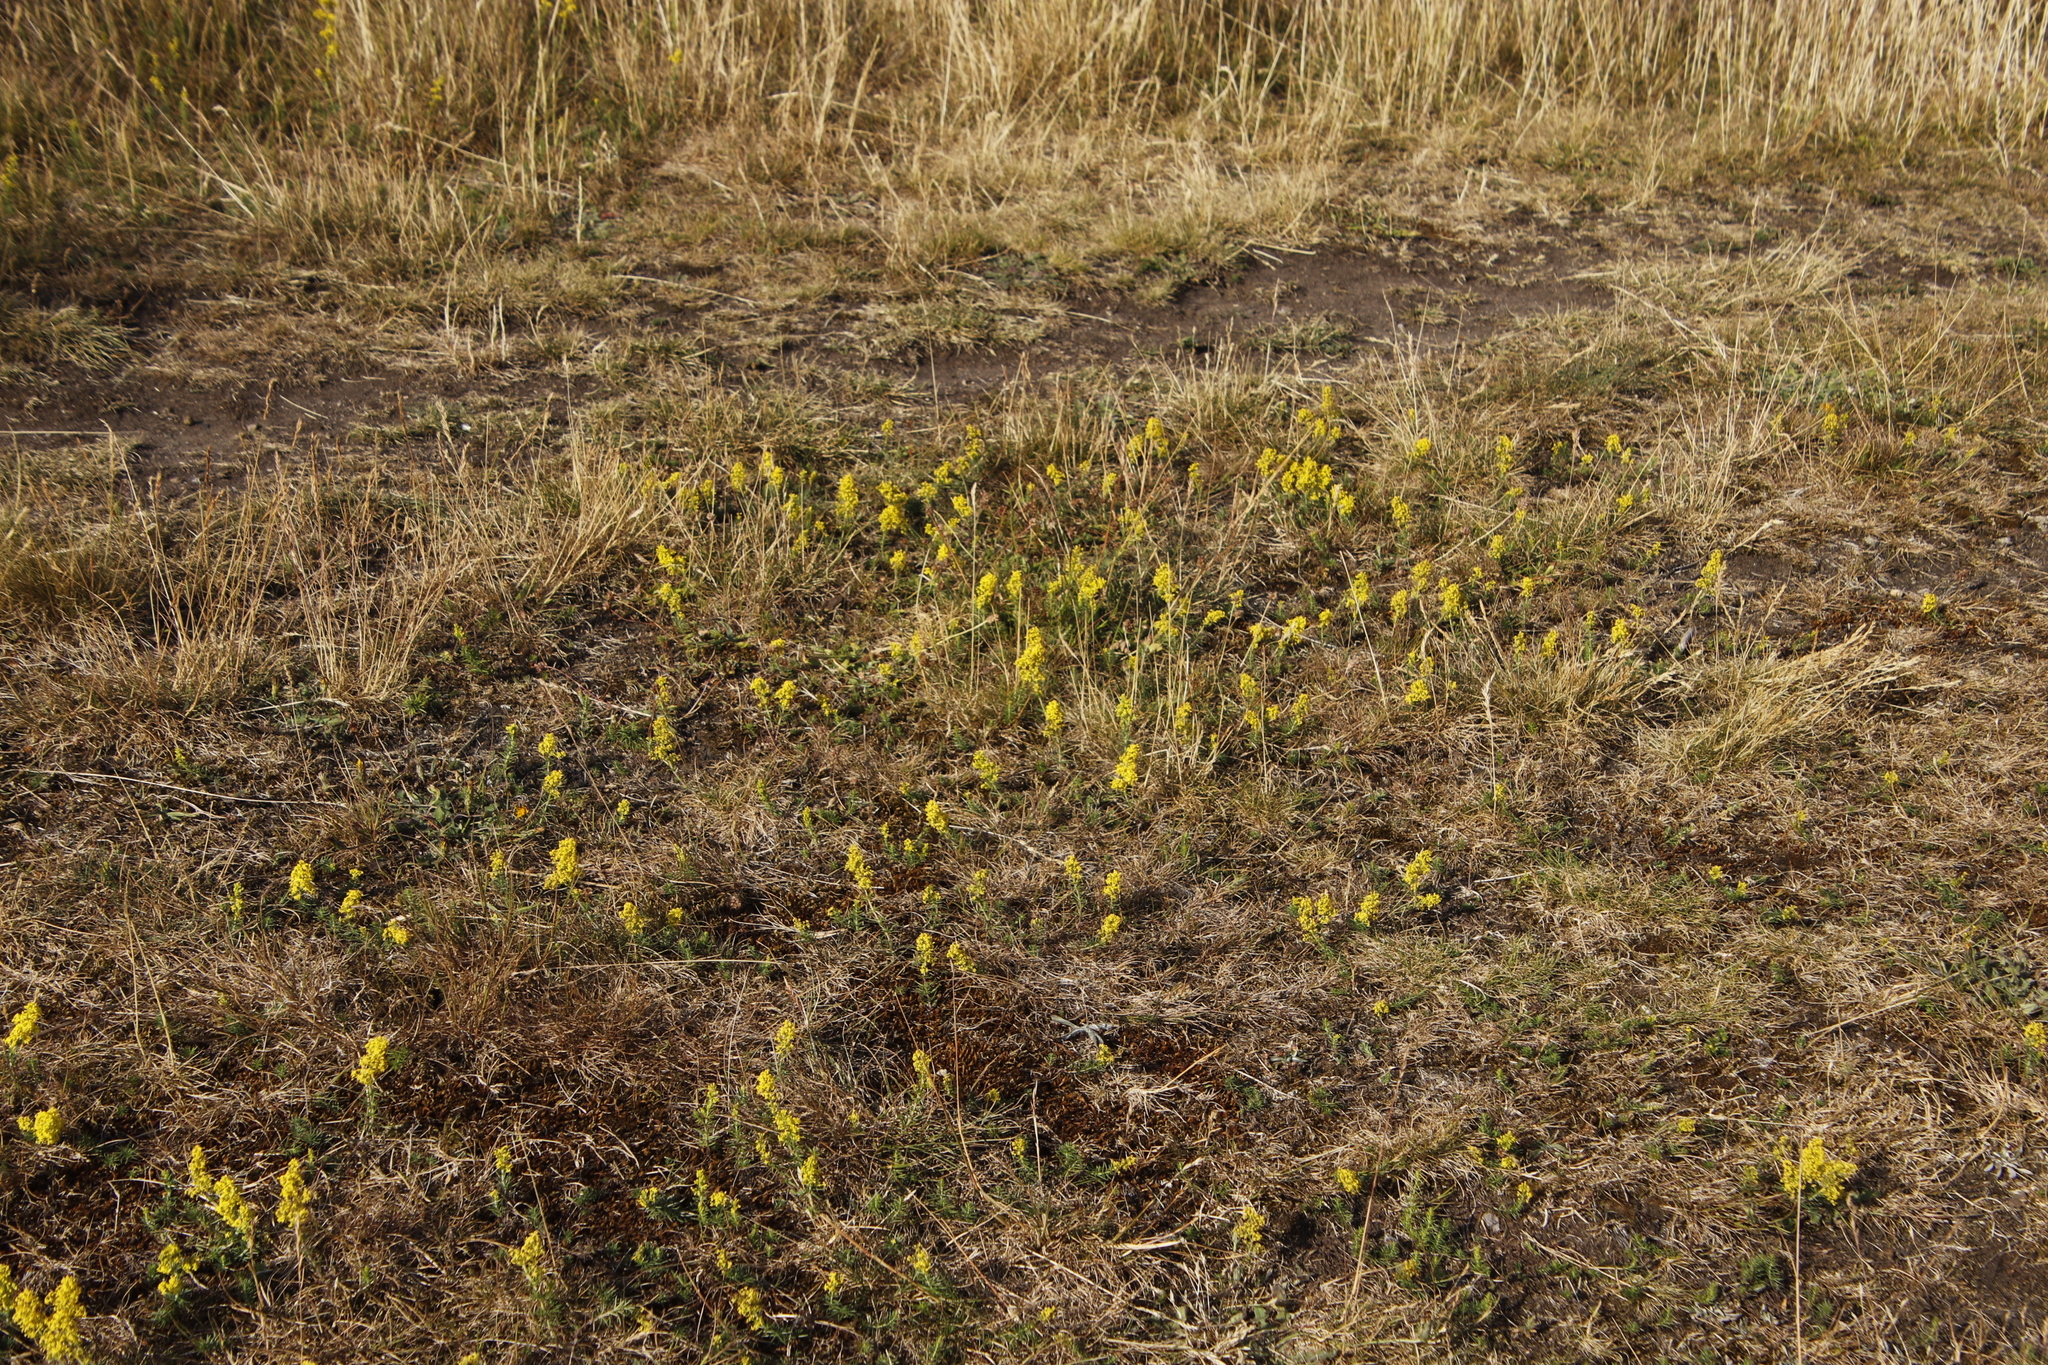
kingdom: Plantae
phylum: Tracheophyta
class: Magnoliopsida
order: Gentianales
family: Rubiaceae
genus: Galium
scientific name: Galium verum
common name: Lady's bedstraw
